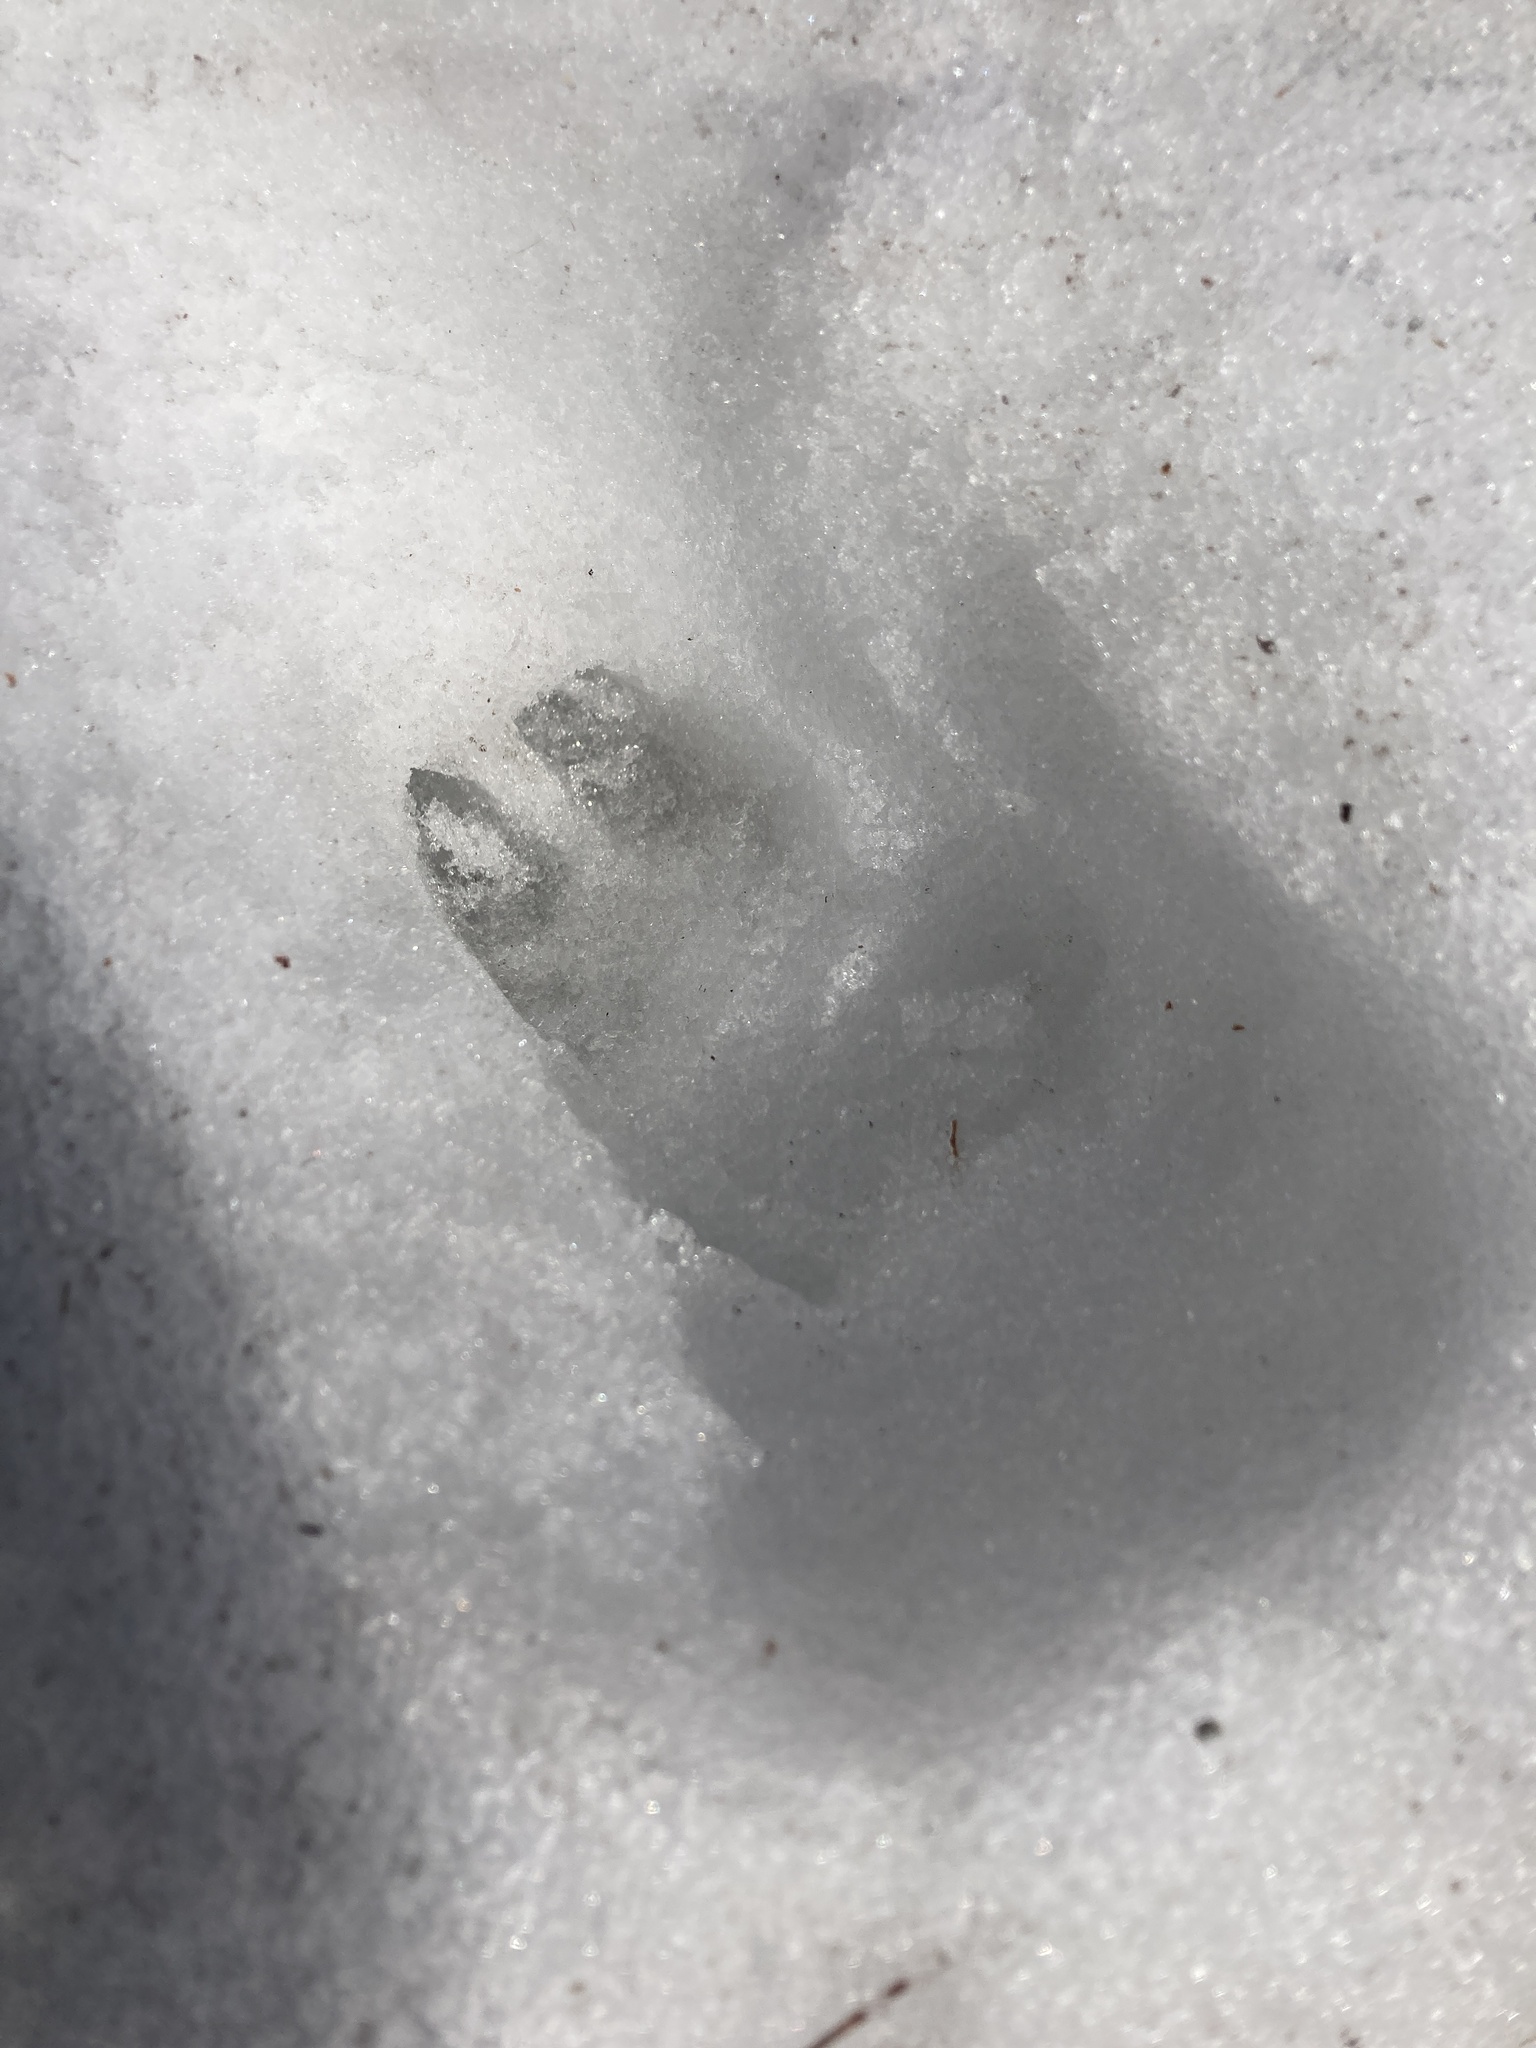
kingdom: Animalia
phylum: Chordata
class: Mammalia
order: Artiodactyla
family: Cervidae
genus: Odocoileus
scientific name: Odocoileus virginianus
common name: White-tailed deer
